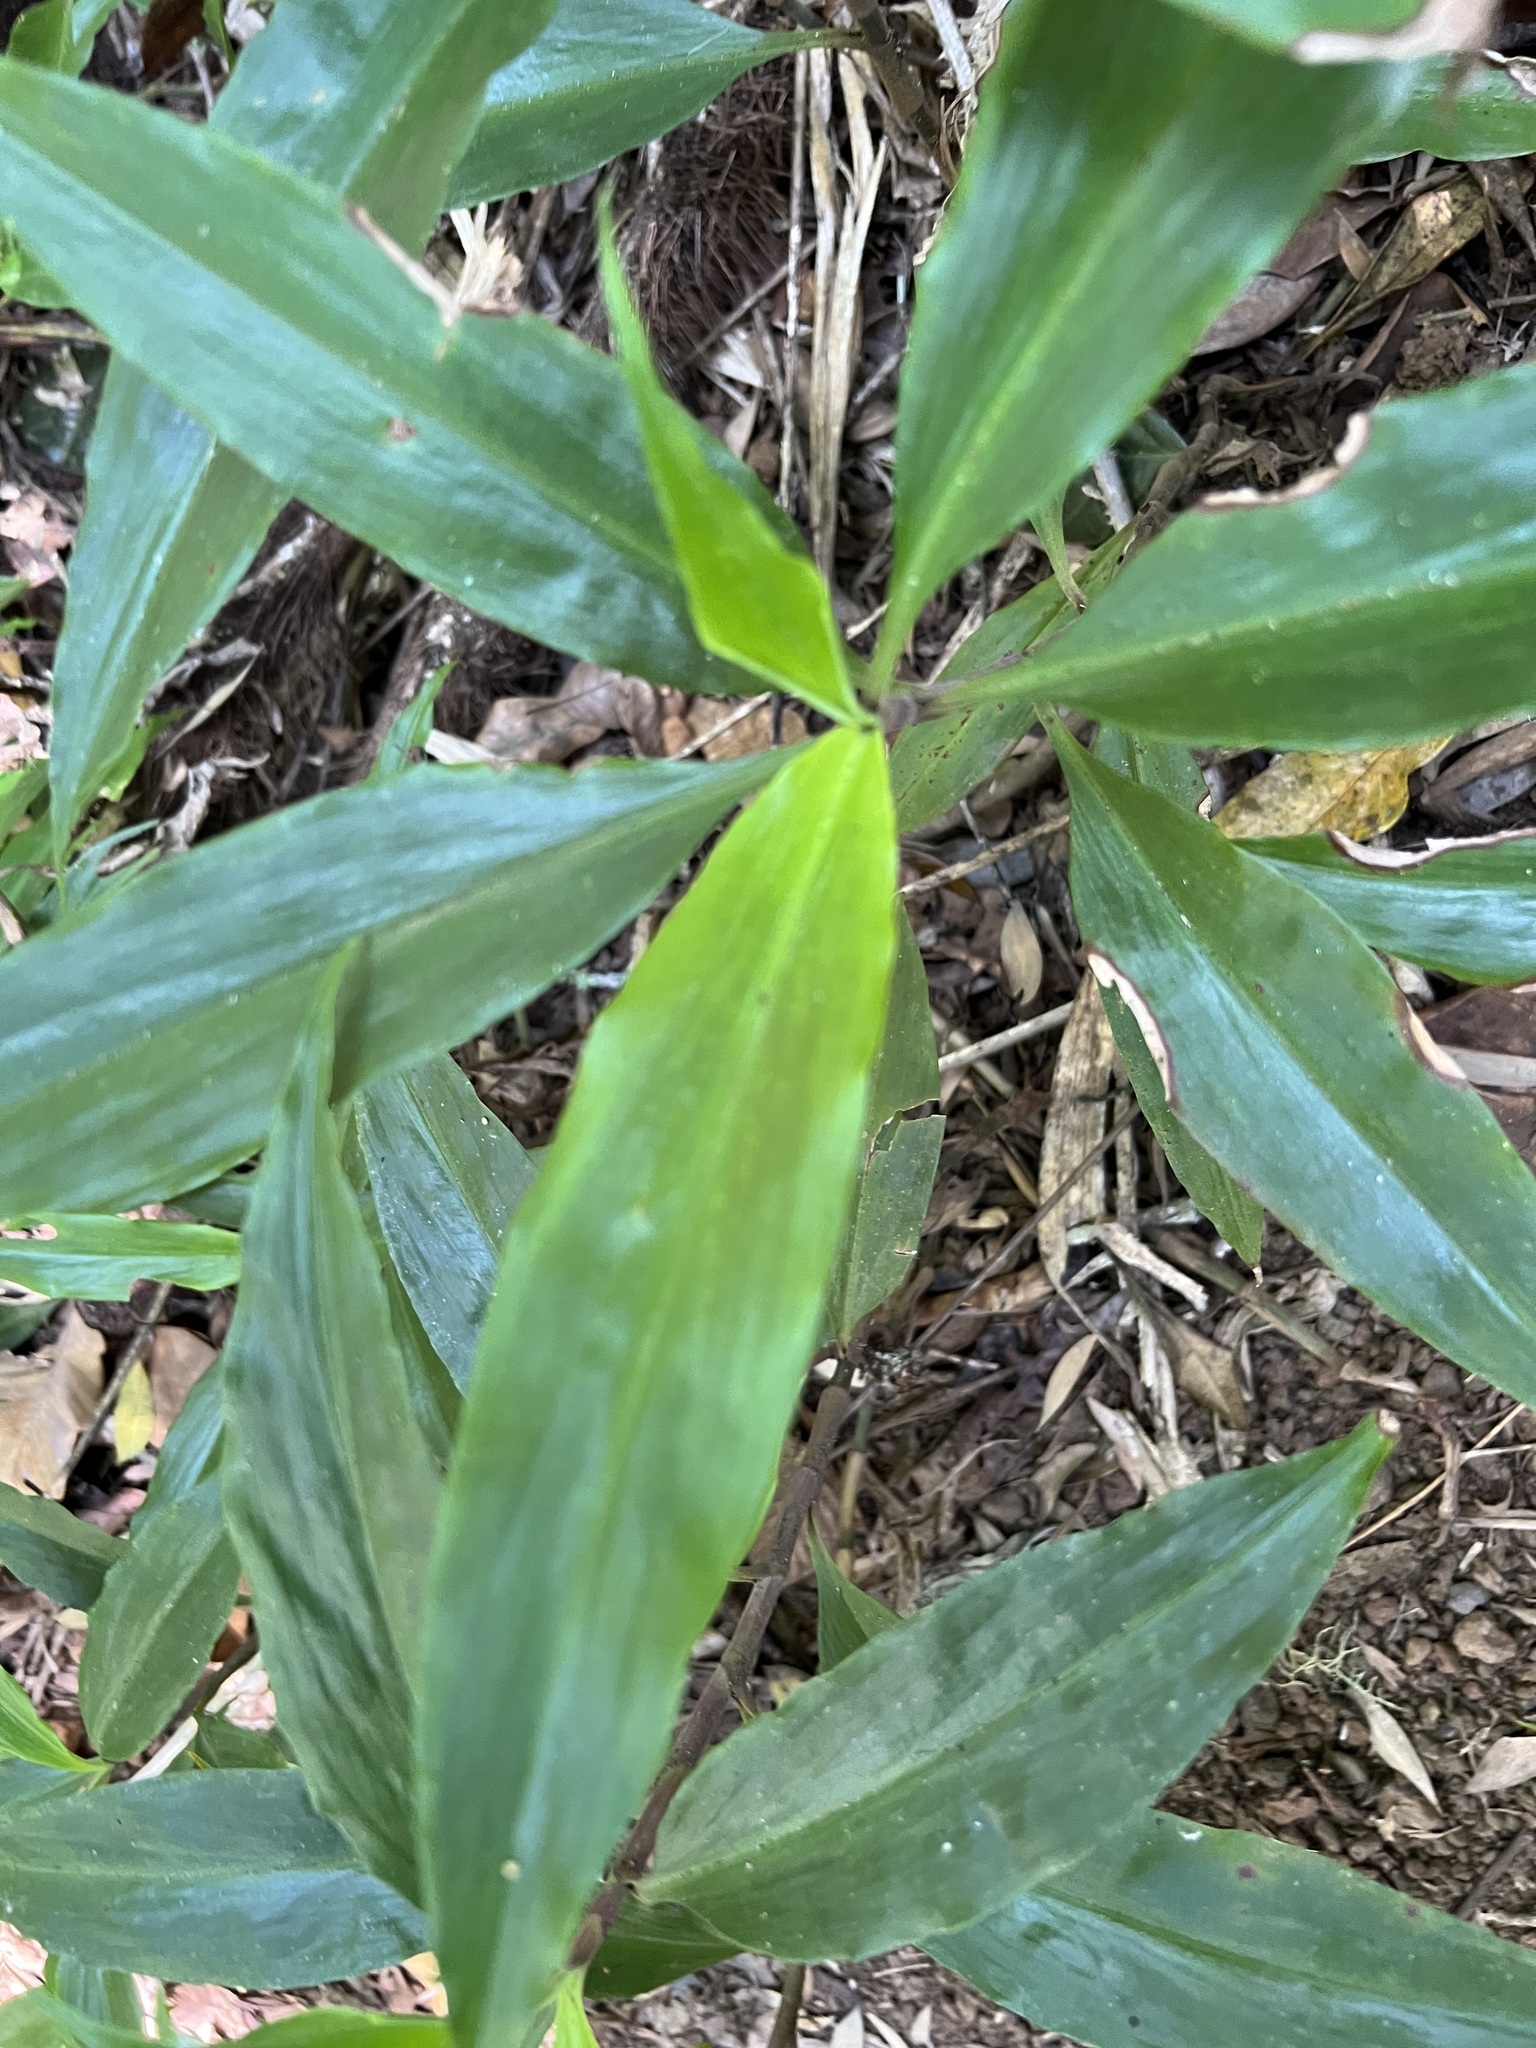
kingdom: Plantae
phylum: Tracheophyta
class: Liliopsida
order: Commelinales
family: Commelinaceae
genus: Pollia
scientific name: Pollia crispata
